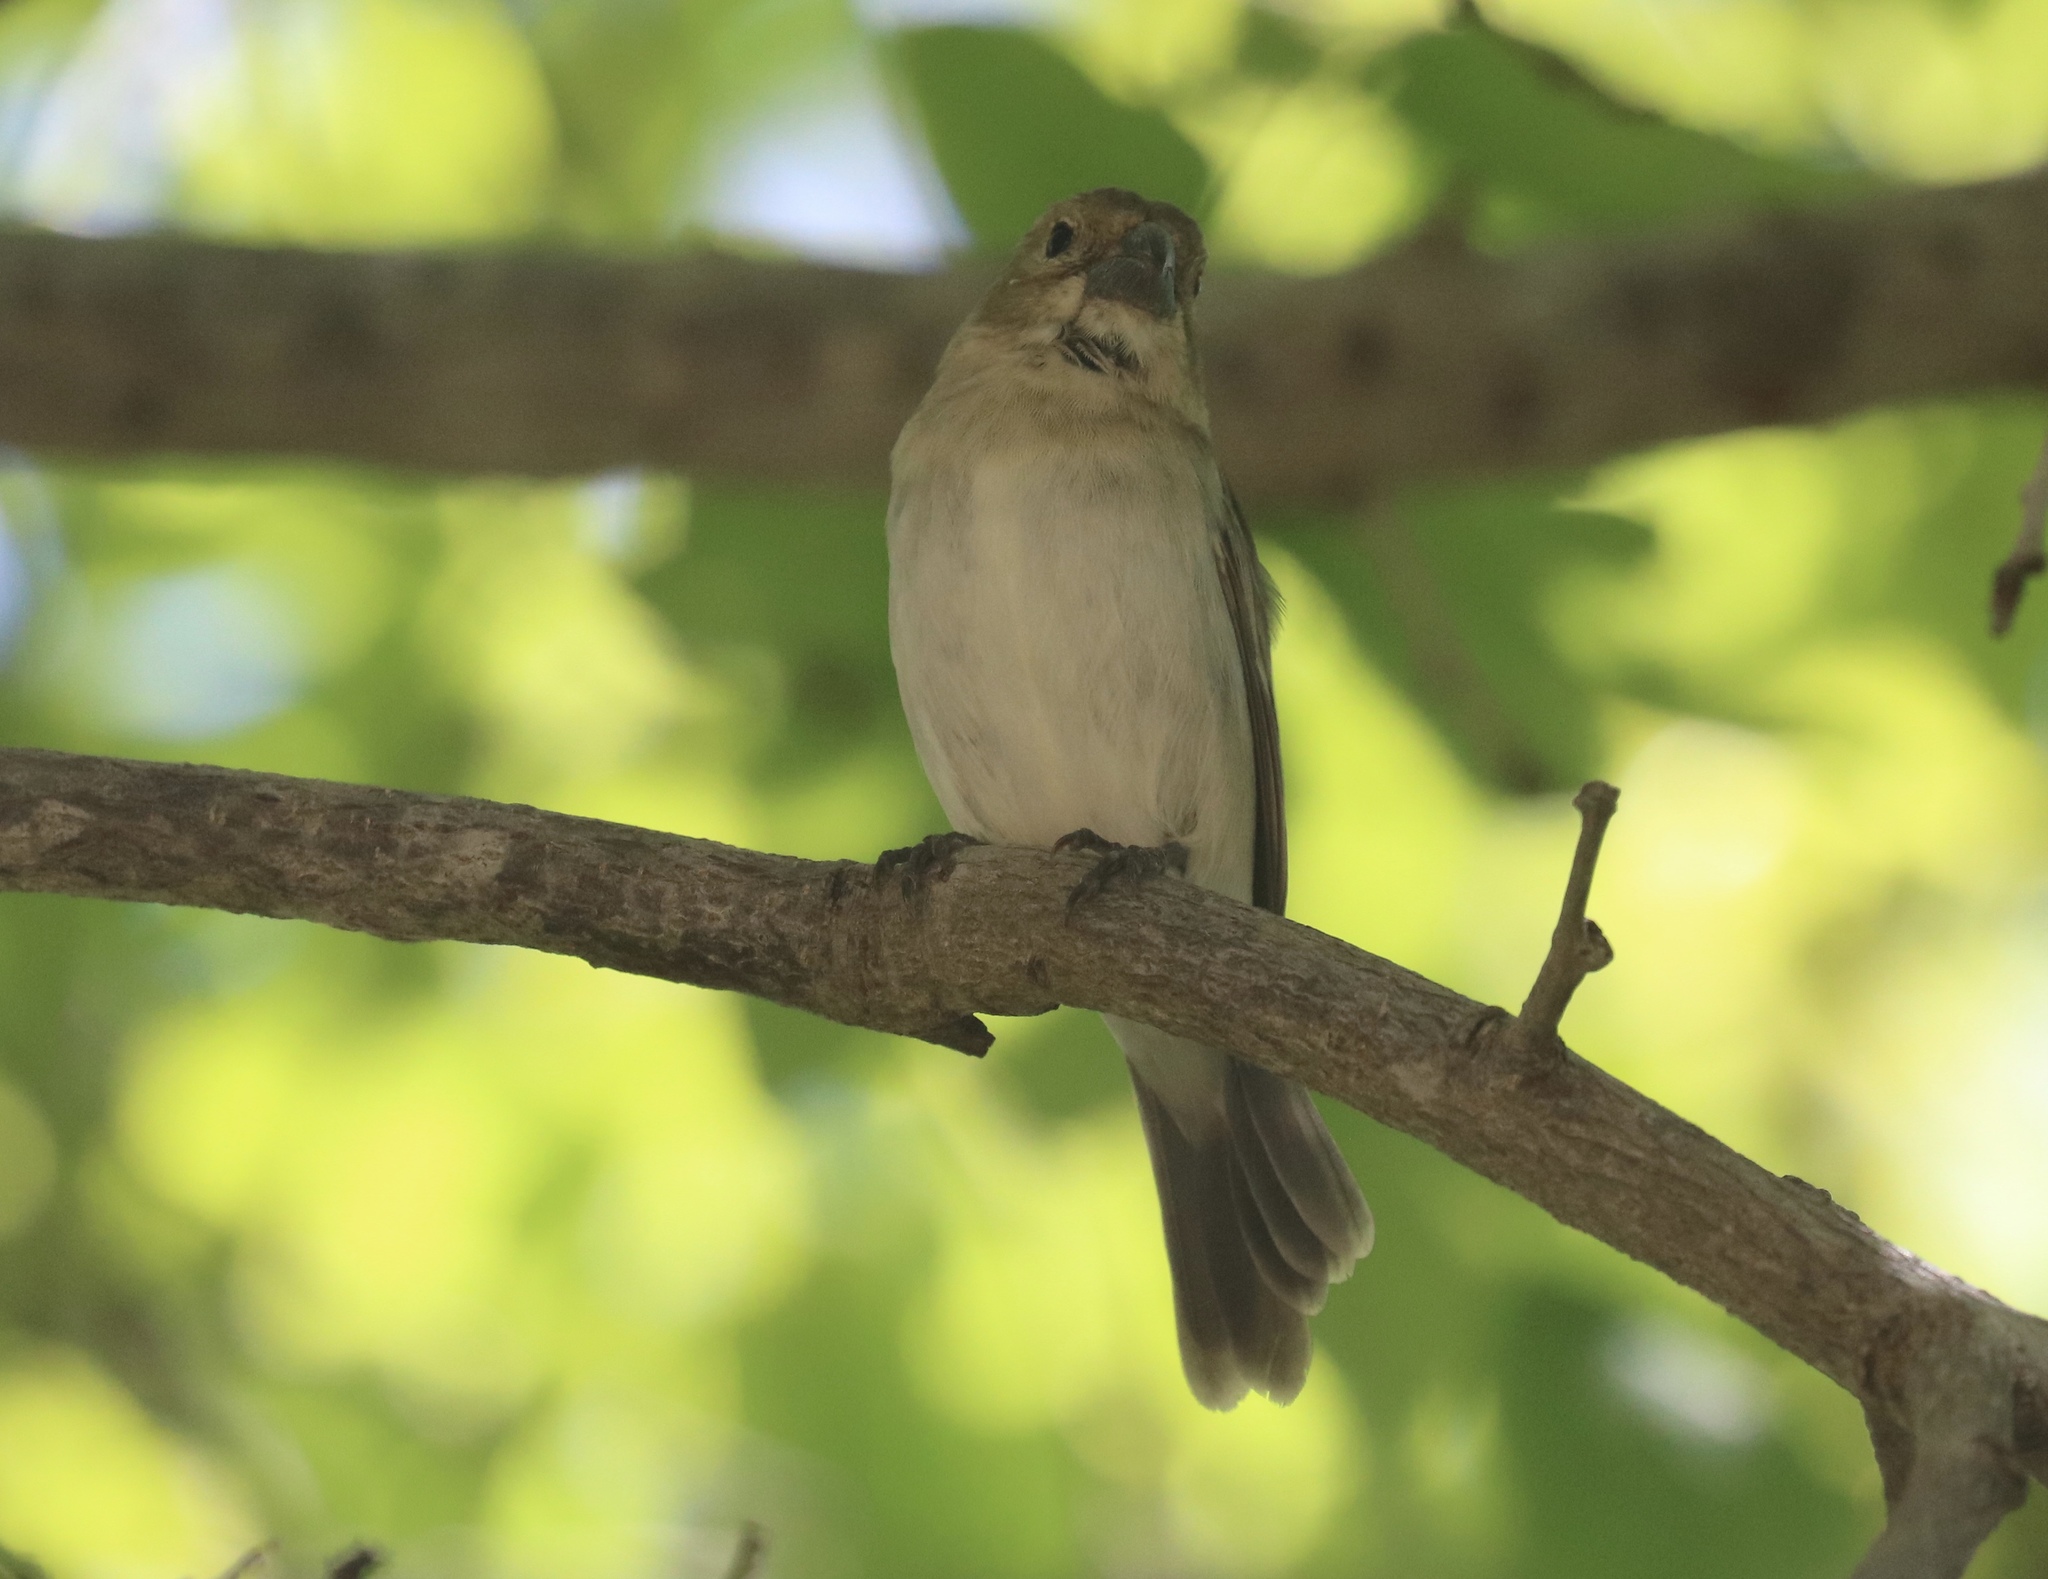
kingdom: Animalia
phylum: Chordata
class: Aves
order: Passeriformes
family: Thraupidae
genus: Sporophila
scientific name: Sporophila albogularis
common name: White-throated seedeater
